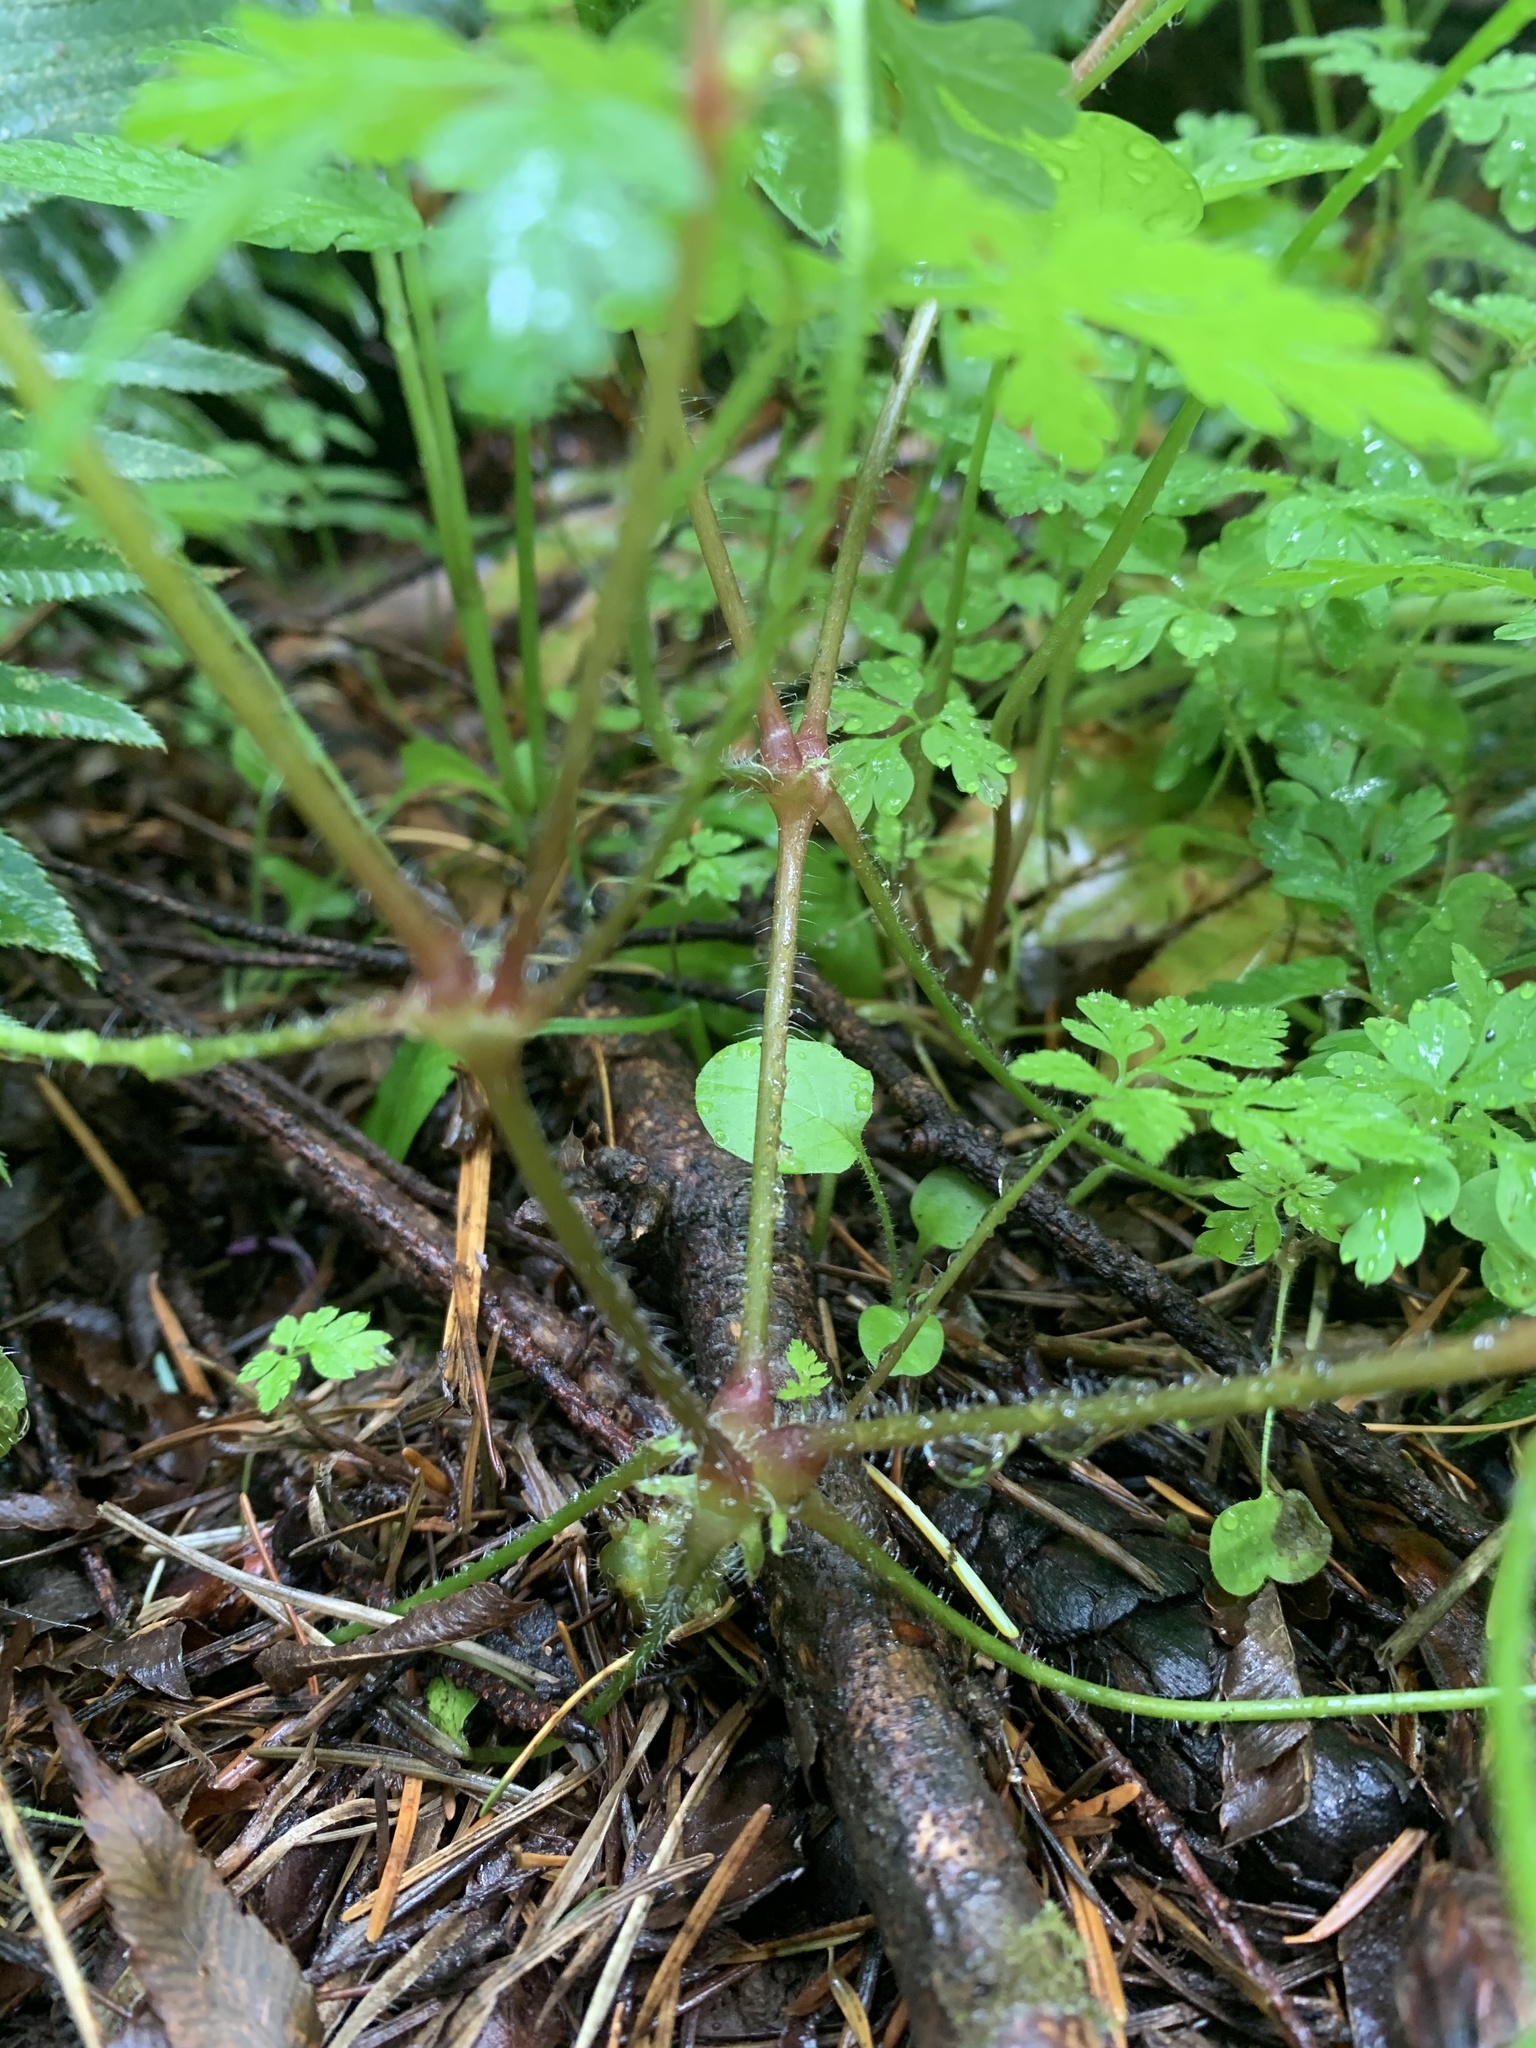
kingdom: Plantae
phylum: Tracheophyta
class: Magnoliopsida
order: Geraniales
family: Geraniaceae
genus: Geranium
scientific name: Geranium robertianum
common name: Herb-robert
